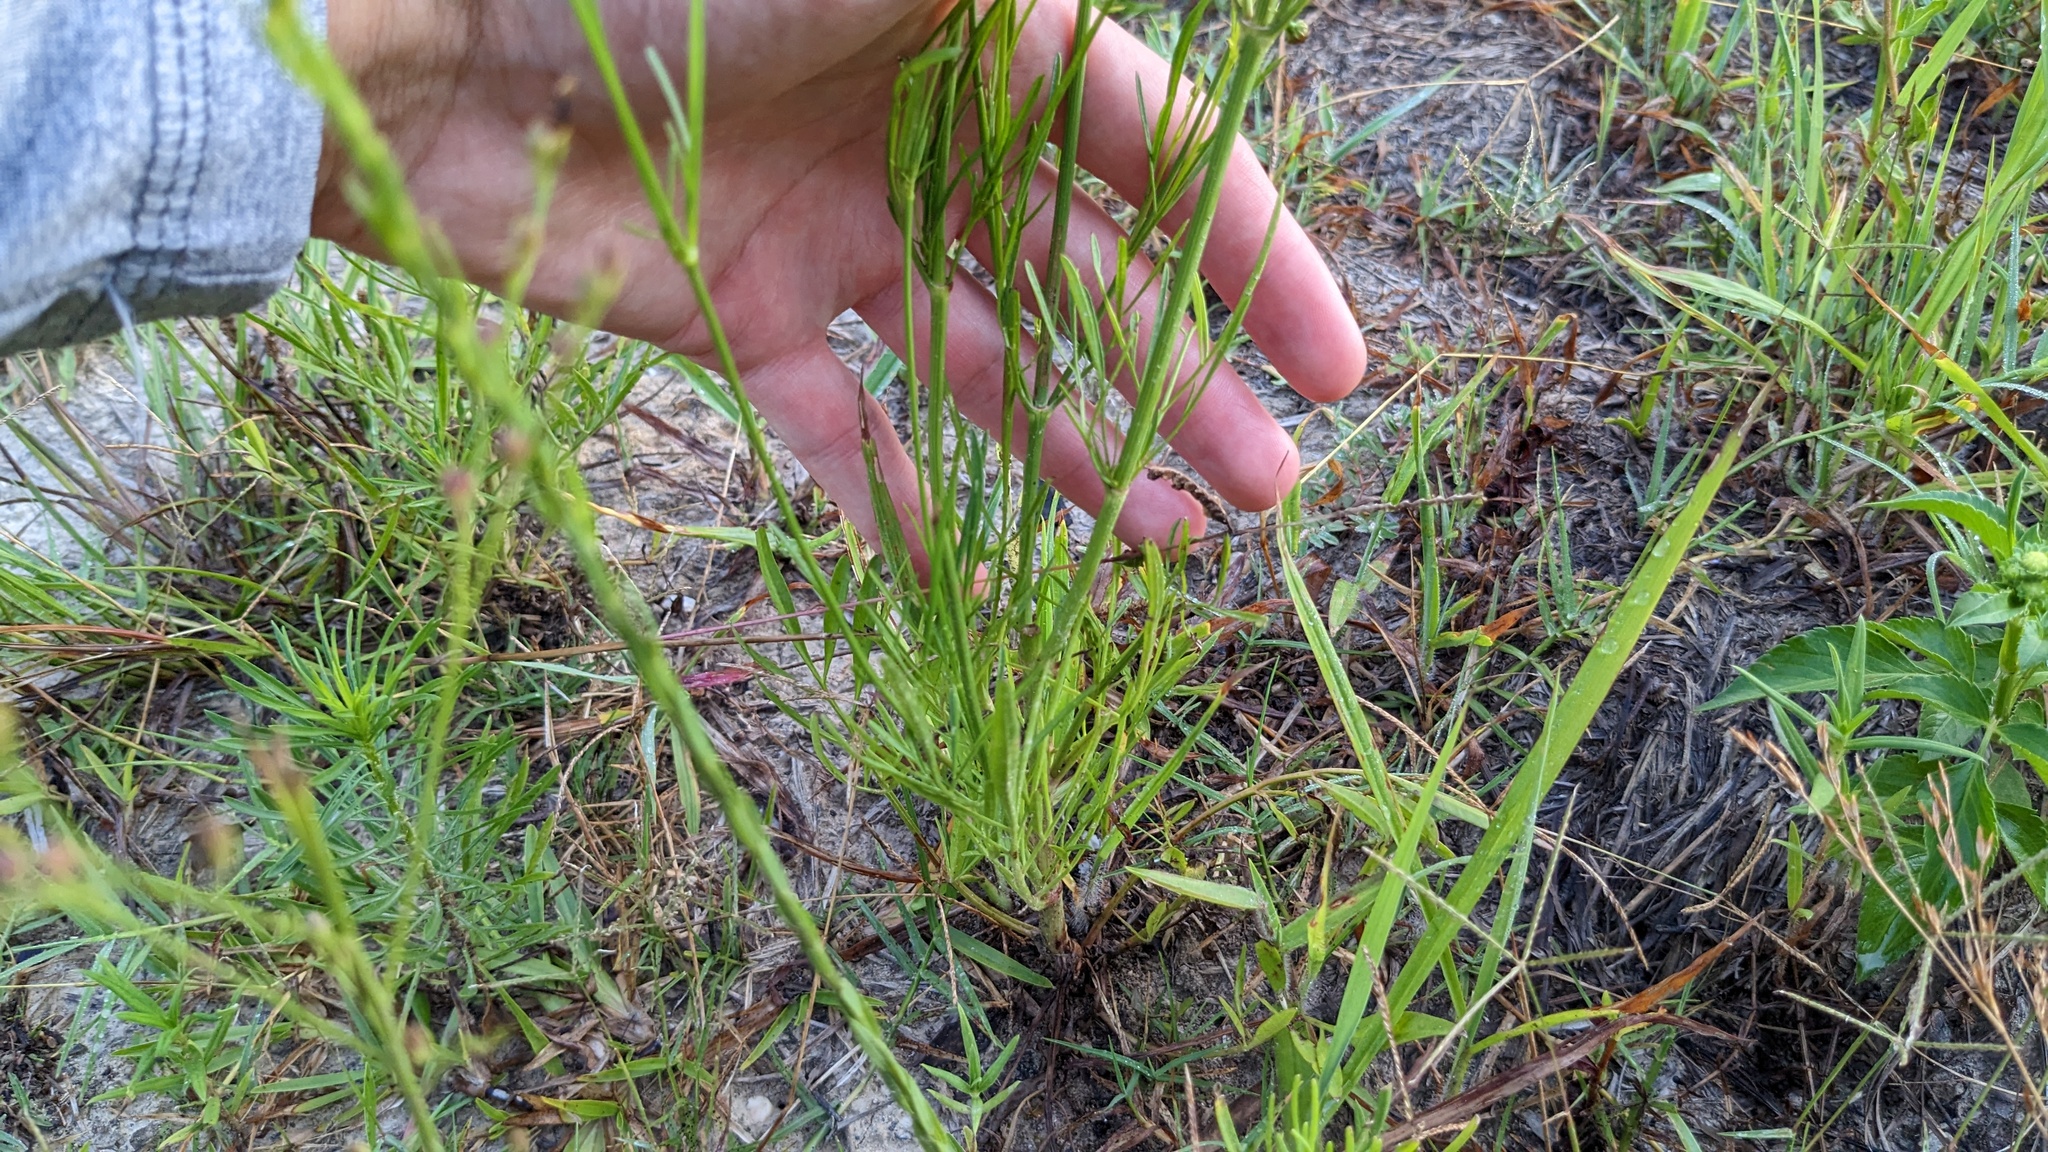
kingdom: Plantae
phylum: Tracheophyta
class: Magnoliopsida
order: Asterales
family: Asteraceae
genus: Coreopsis
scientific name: Coreopsis tinctoria
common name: Garden tickseed
